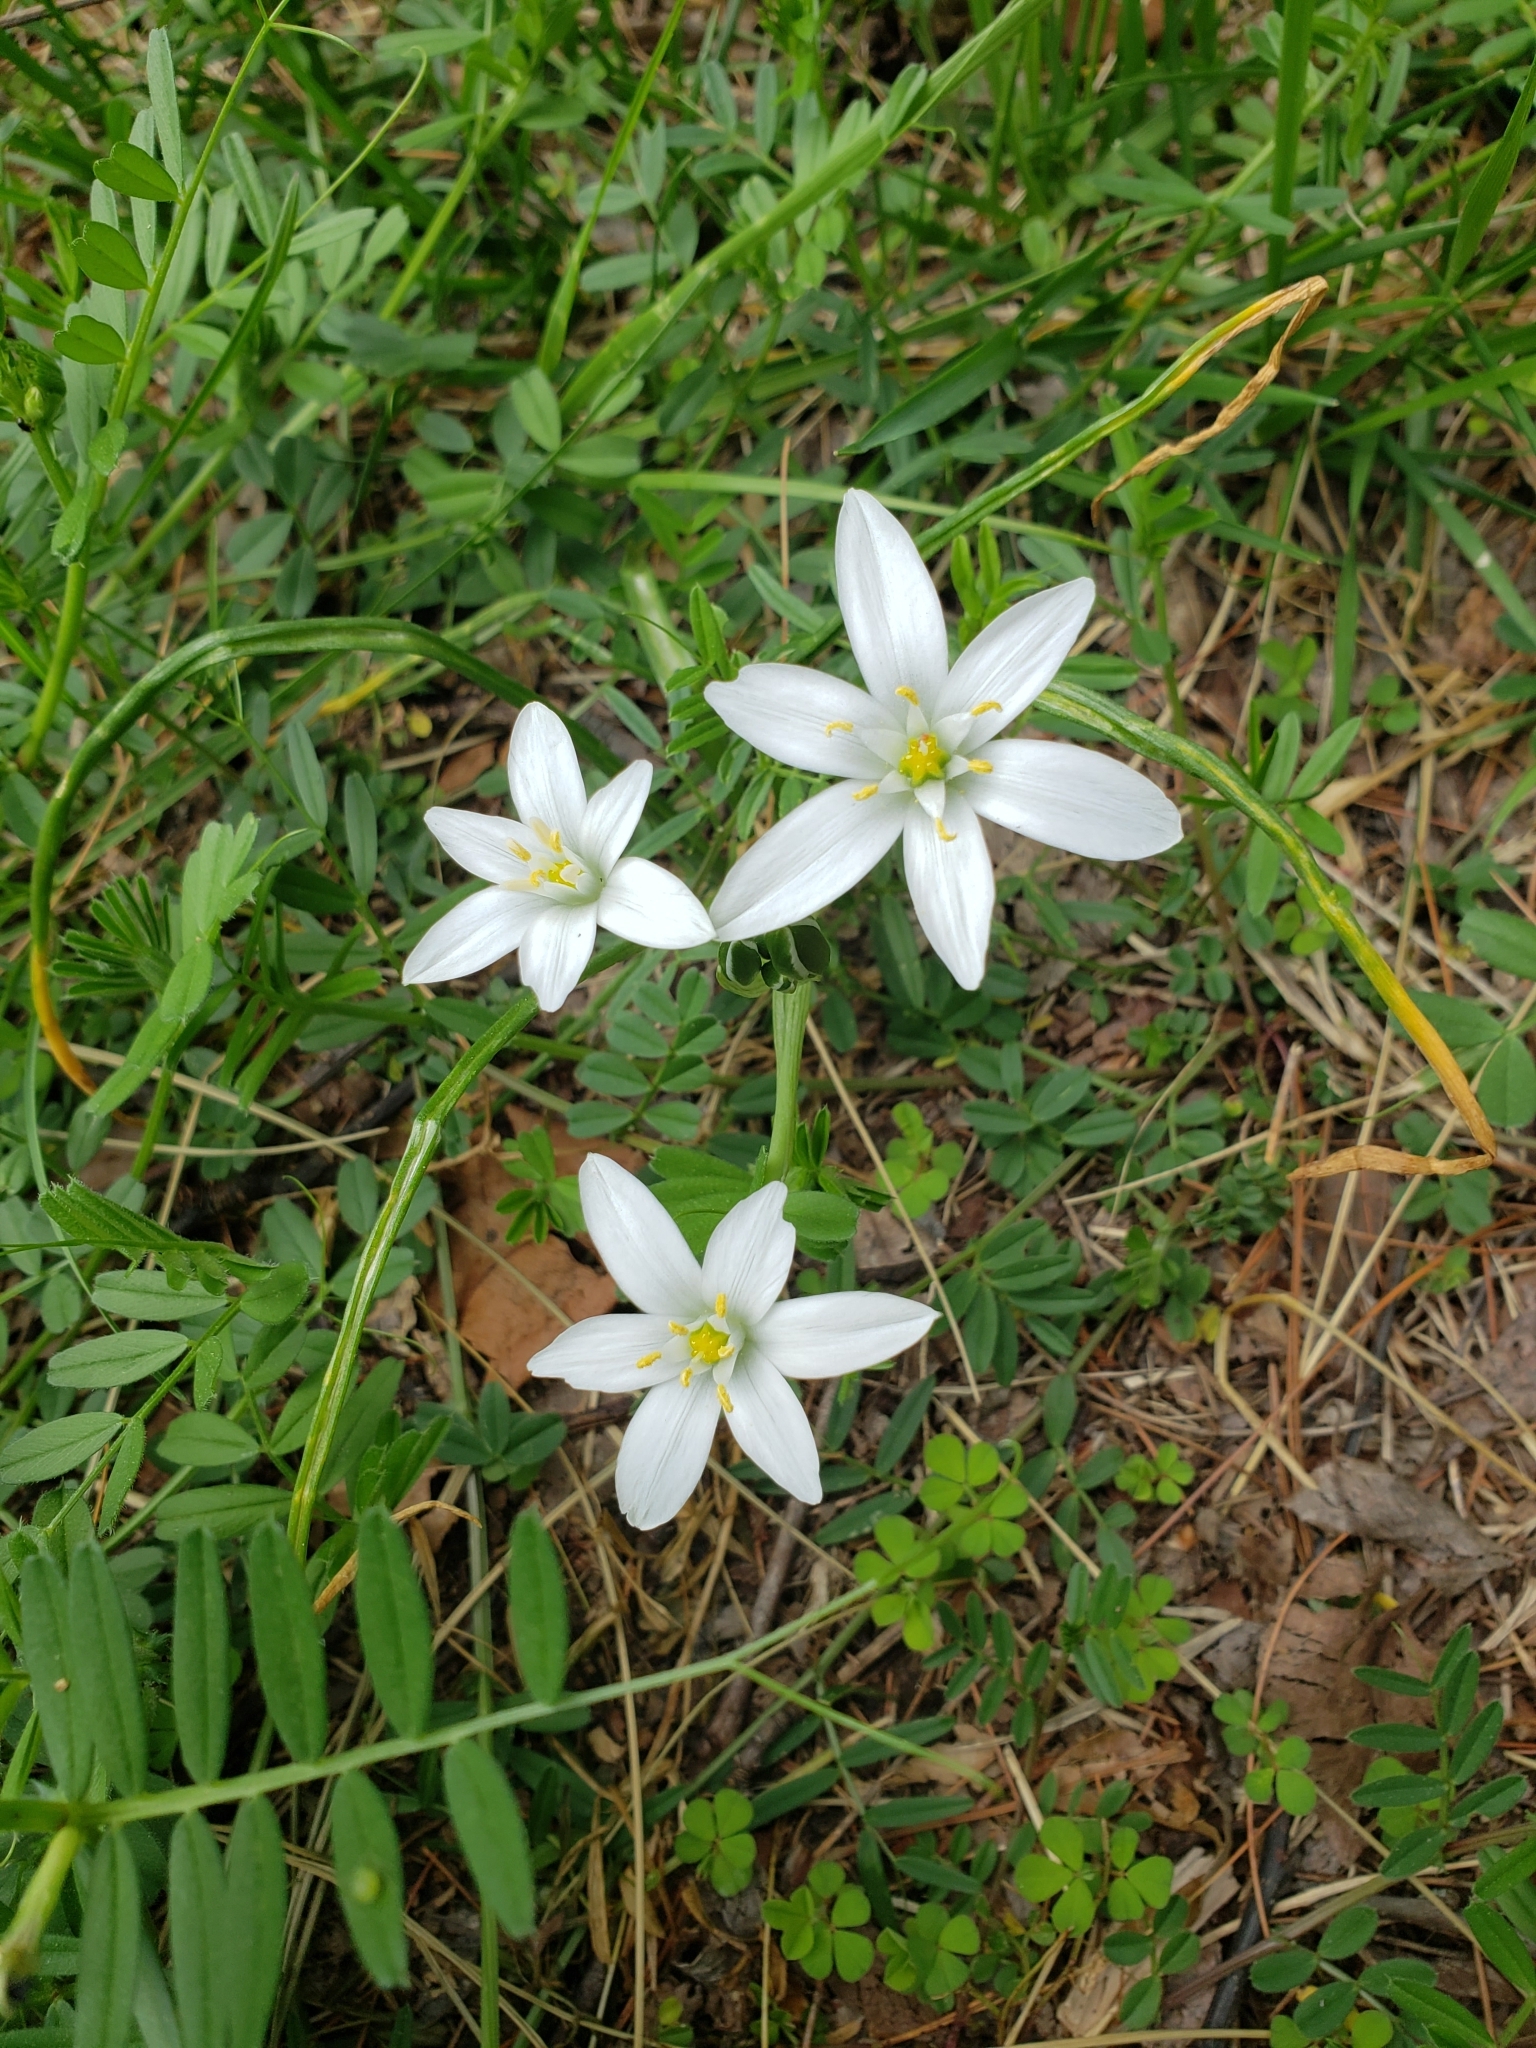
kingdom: Plantae
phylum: Tracheophyta
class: Liliopsida
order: Asparagales
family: Asparagaceae
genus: Ornithogalum
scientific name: Ornithogalum umbellatum
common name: Garden star-of-bethlehem
